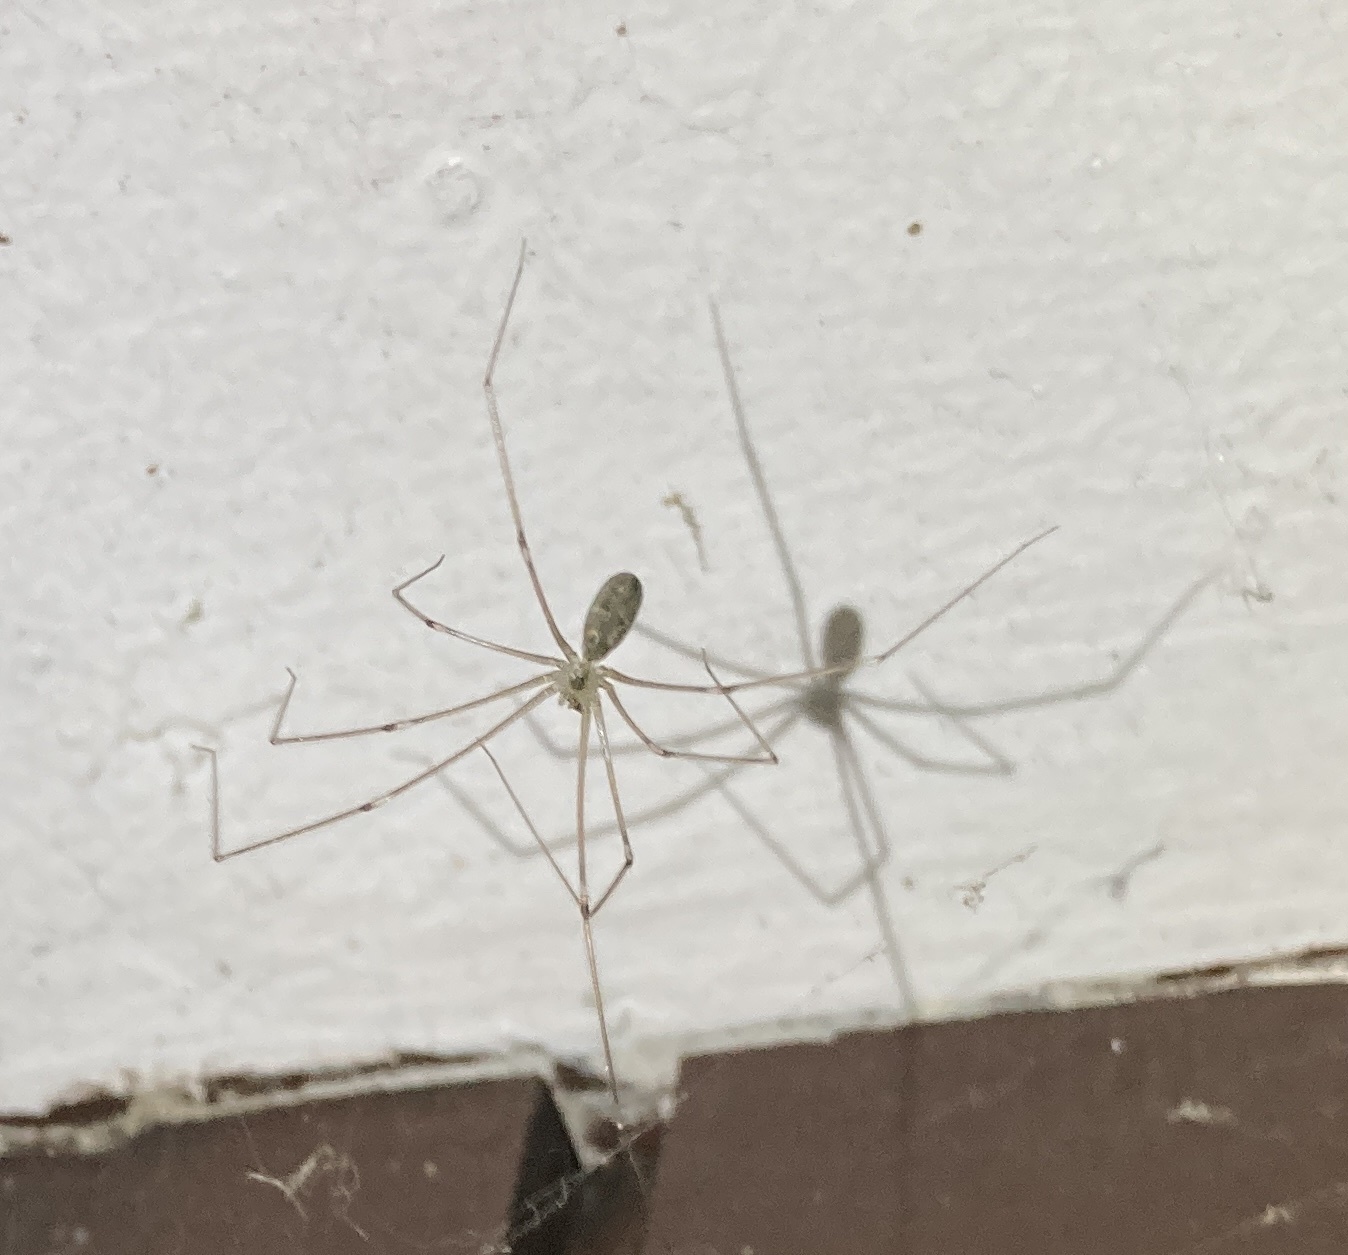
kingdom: Animalia
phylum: Arthropoda
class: Arachnida
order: Araneae
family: Pholcidae
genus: Pholcus
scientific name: Pholcus phalangioides
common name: Longbodied cellar spider
